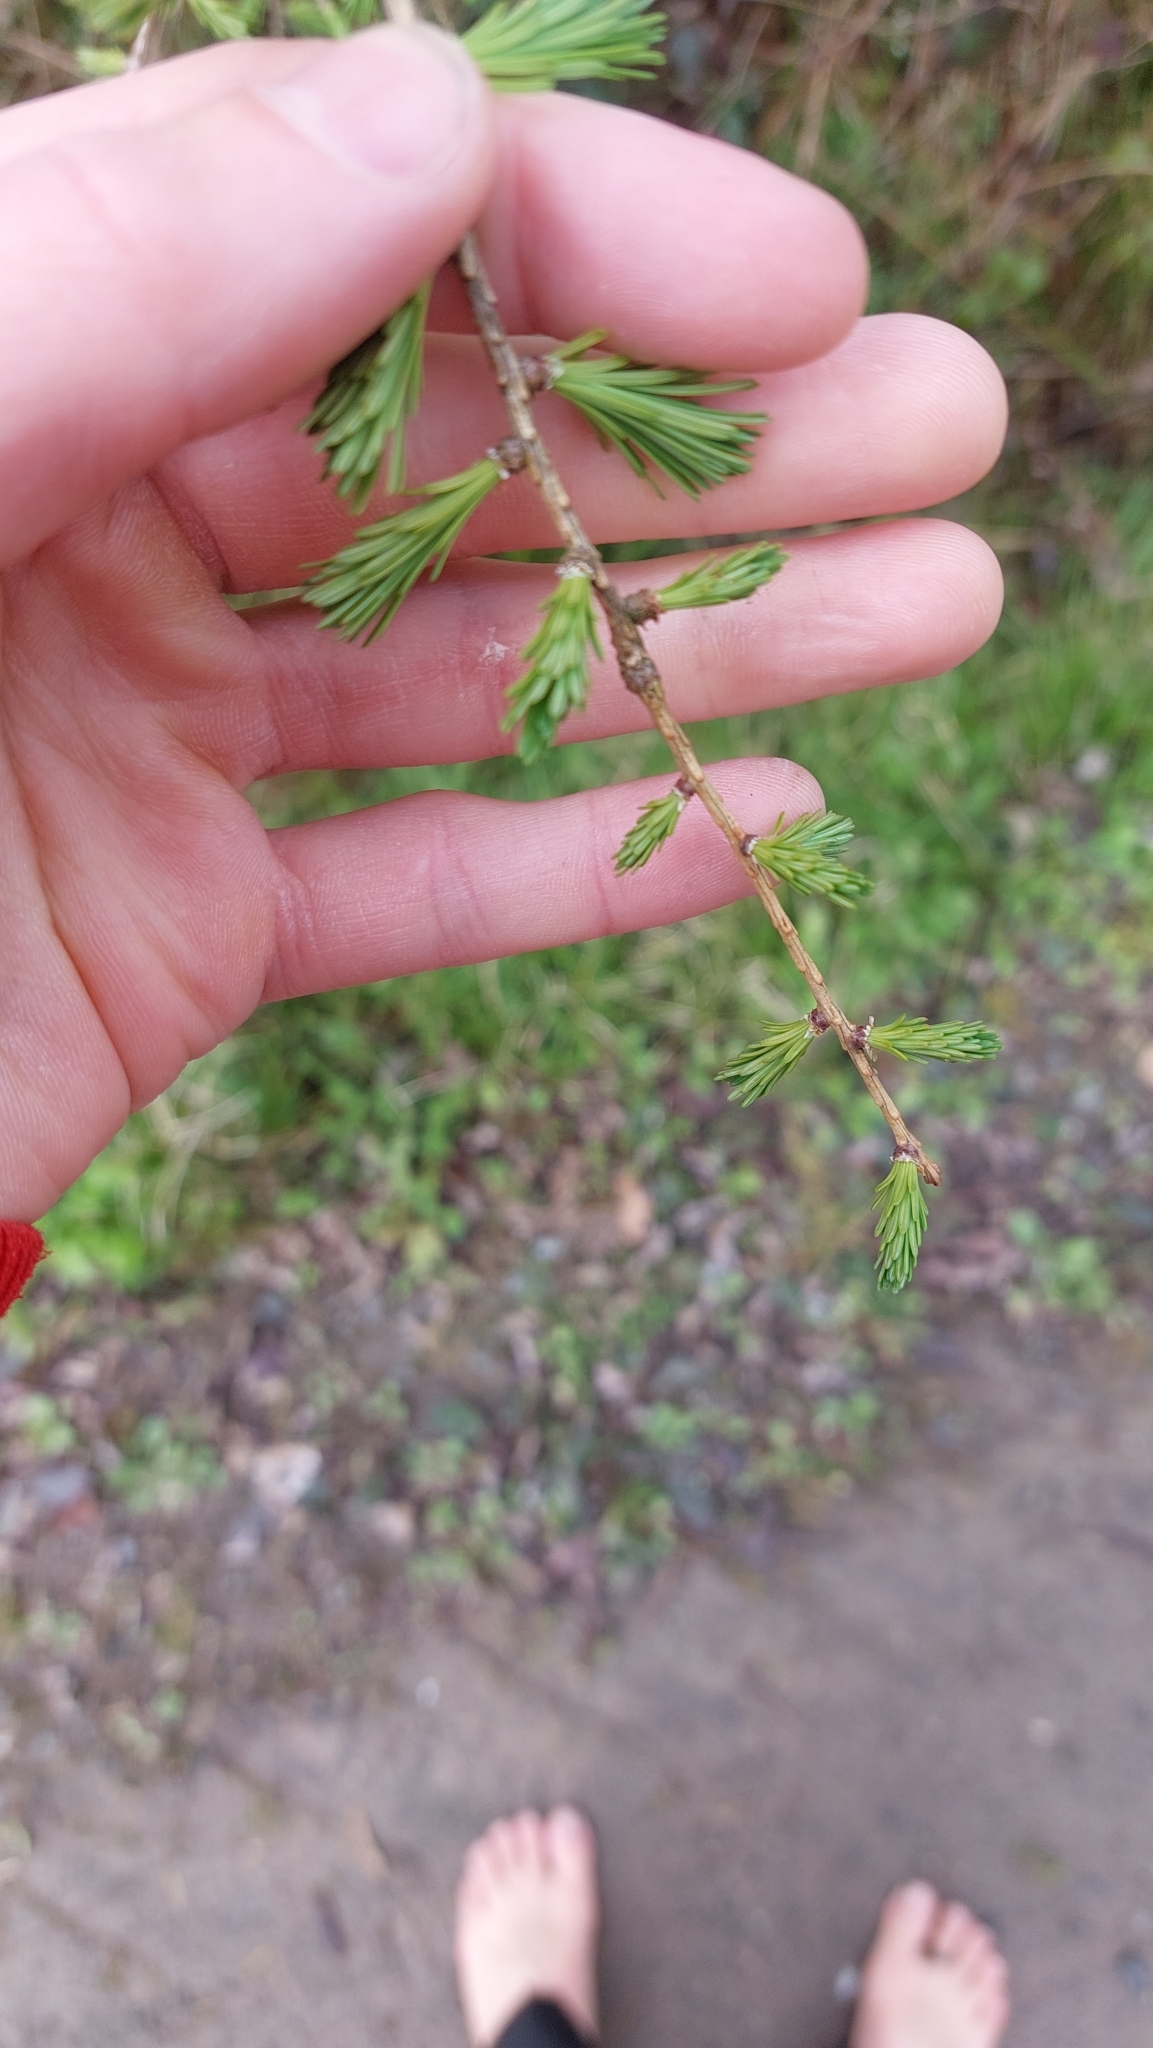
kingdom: Plantae
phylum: Tracheophyta
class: Pinopsida
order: Pinales
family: Pinaceae
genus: Larix
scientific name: Larix decidua
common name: European larch
